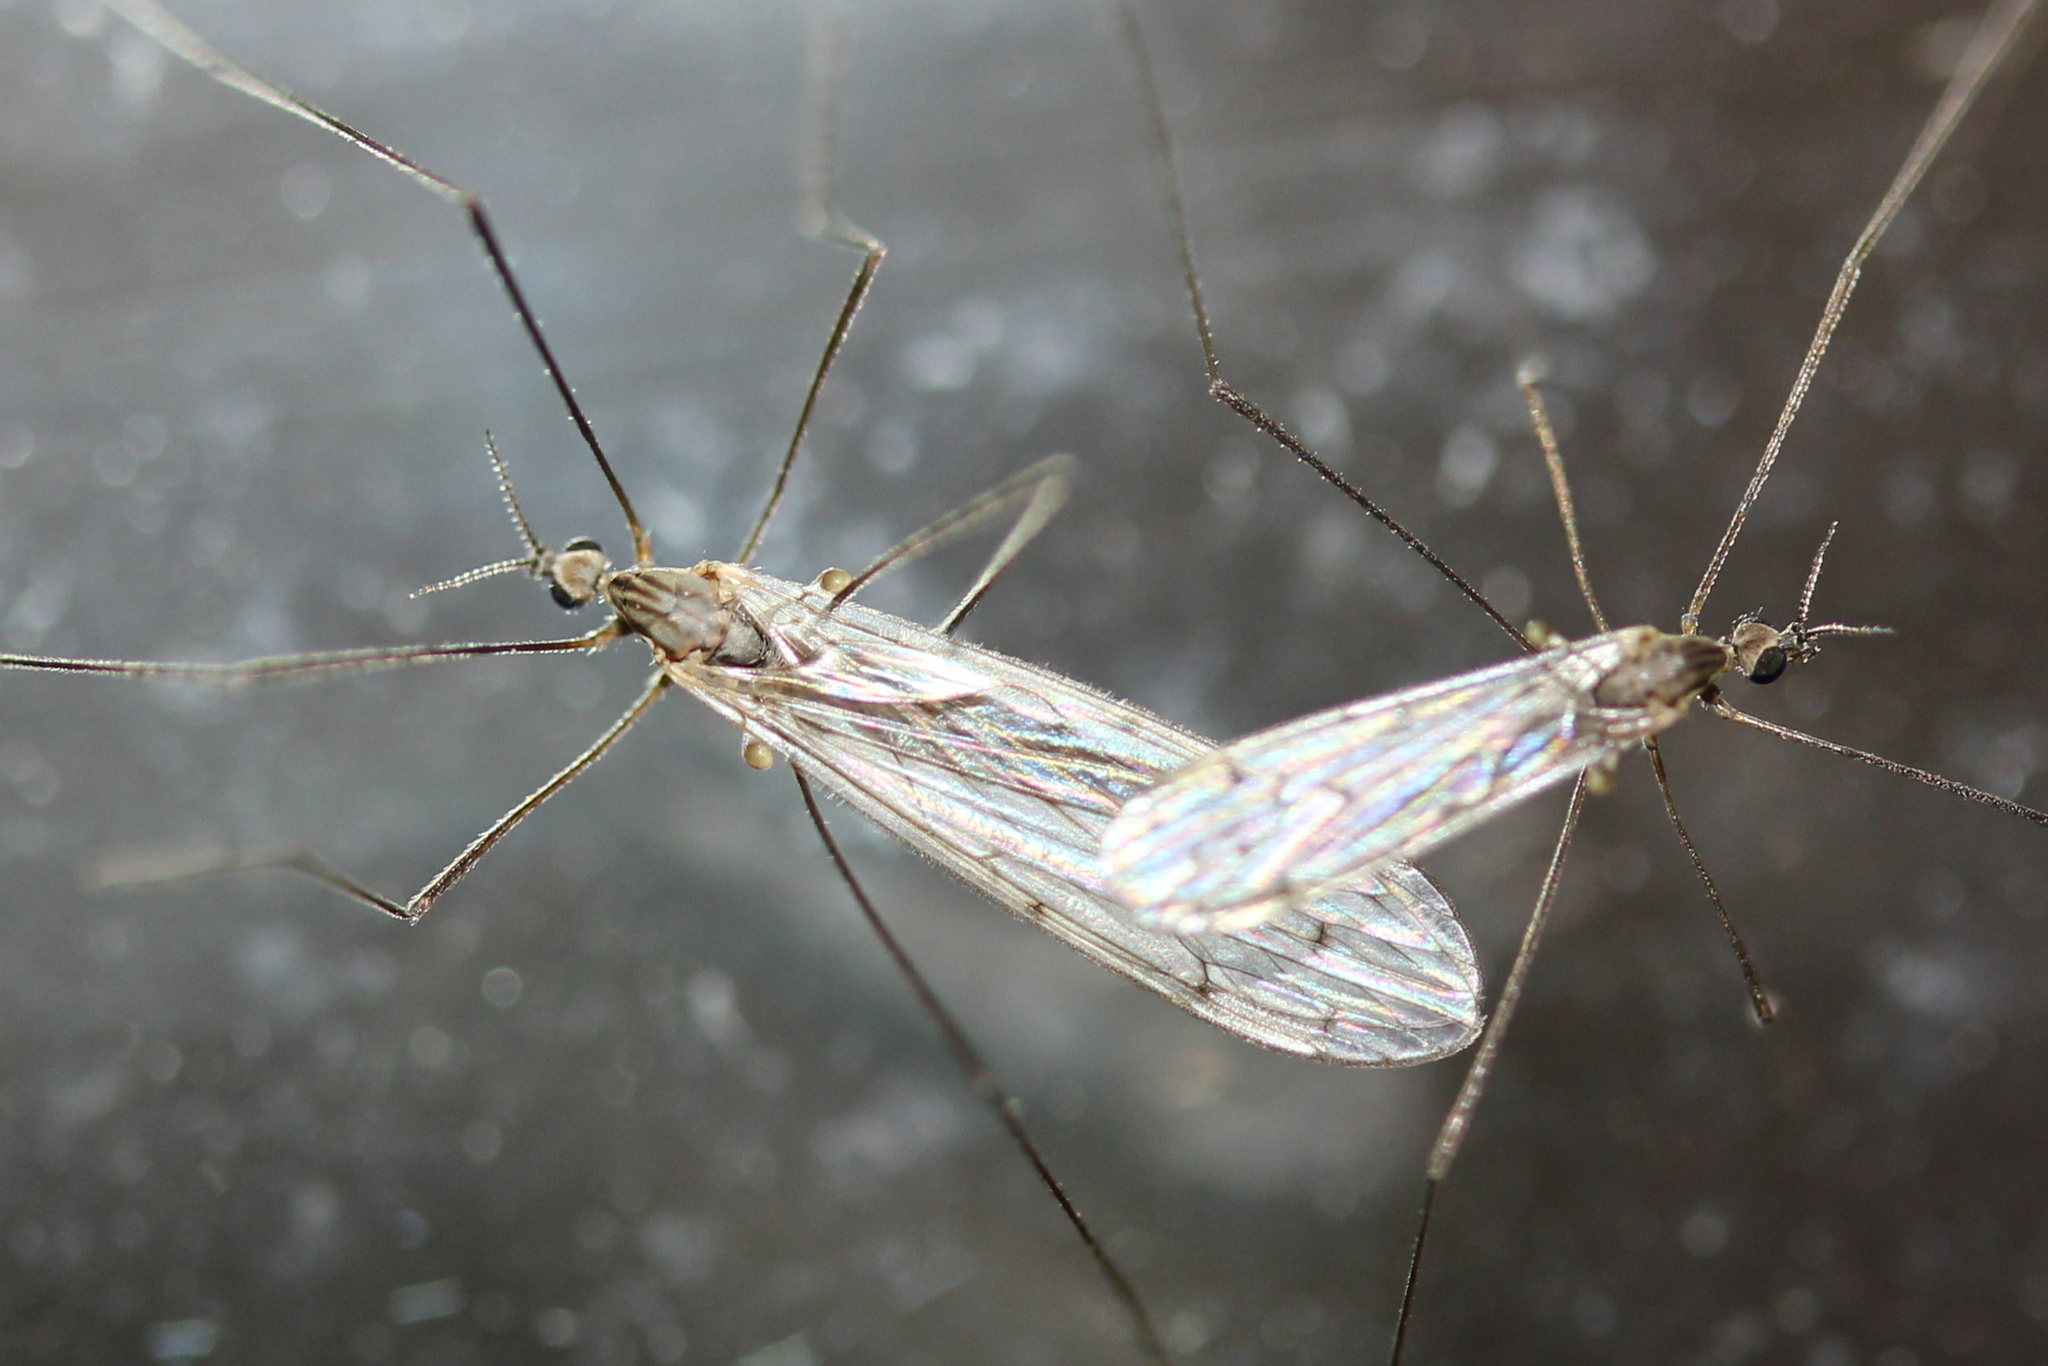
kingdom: Animalia
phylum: Arthropoda
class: Insecta
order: Diptera
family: Limoniidae
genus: Symplecta
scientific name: Symplecta cana
